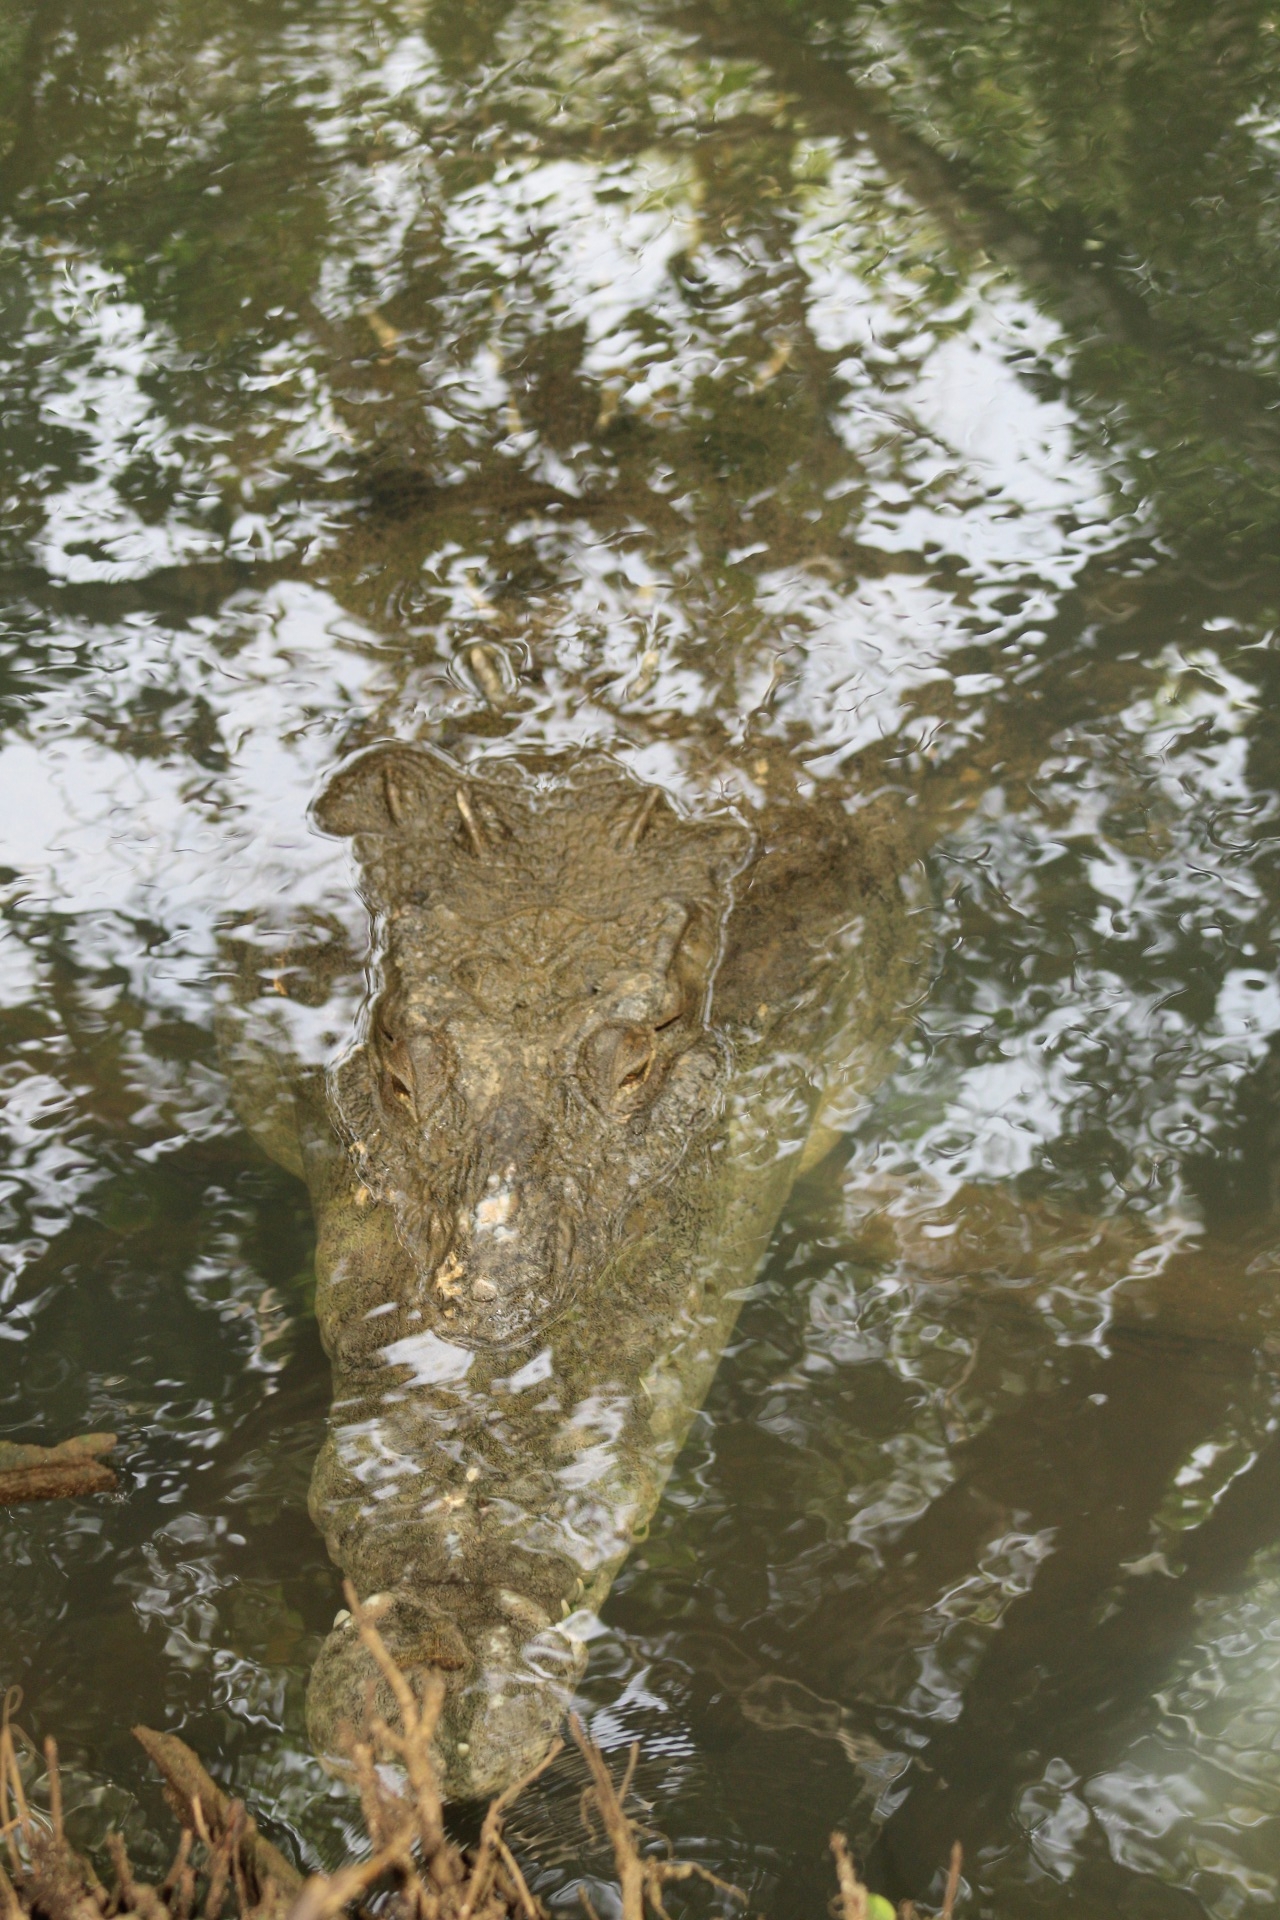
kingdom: Animalia
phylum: Chordata
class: Crocodylia
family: Crocodylidae
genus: Crocodylus
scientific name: Crocodylus acutus
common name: American crocodile
